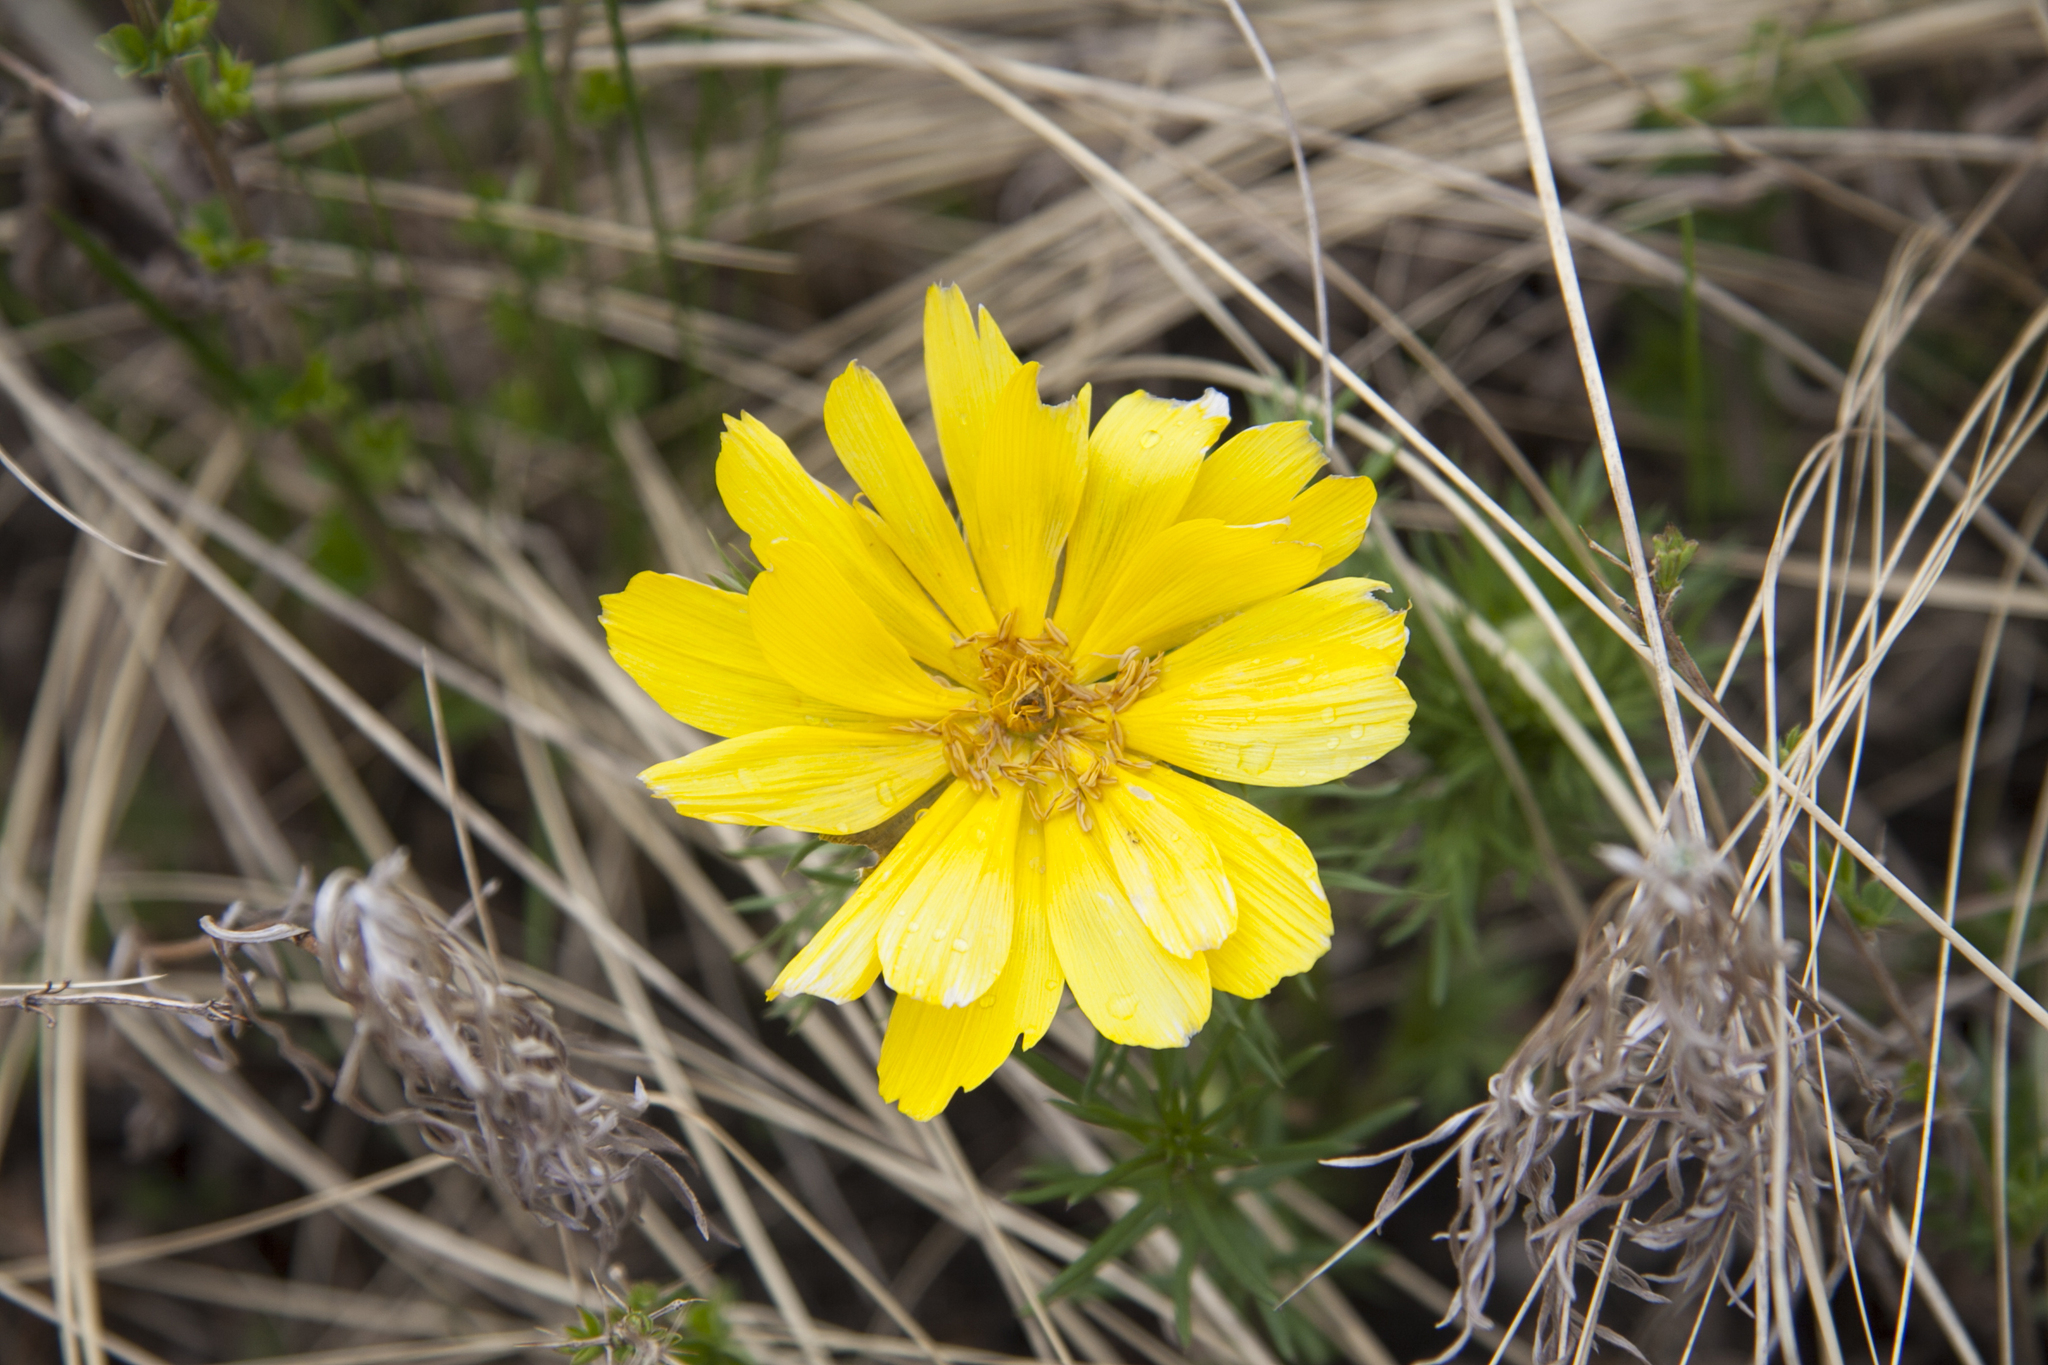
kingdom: Plantae
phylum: Tracheophyta
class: Magnoliopsida
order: Ranunculales
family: Ranunculaceae
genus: Adonis
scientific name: Adonis vernalis
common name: Yellow pheasants-eye
